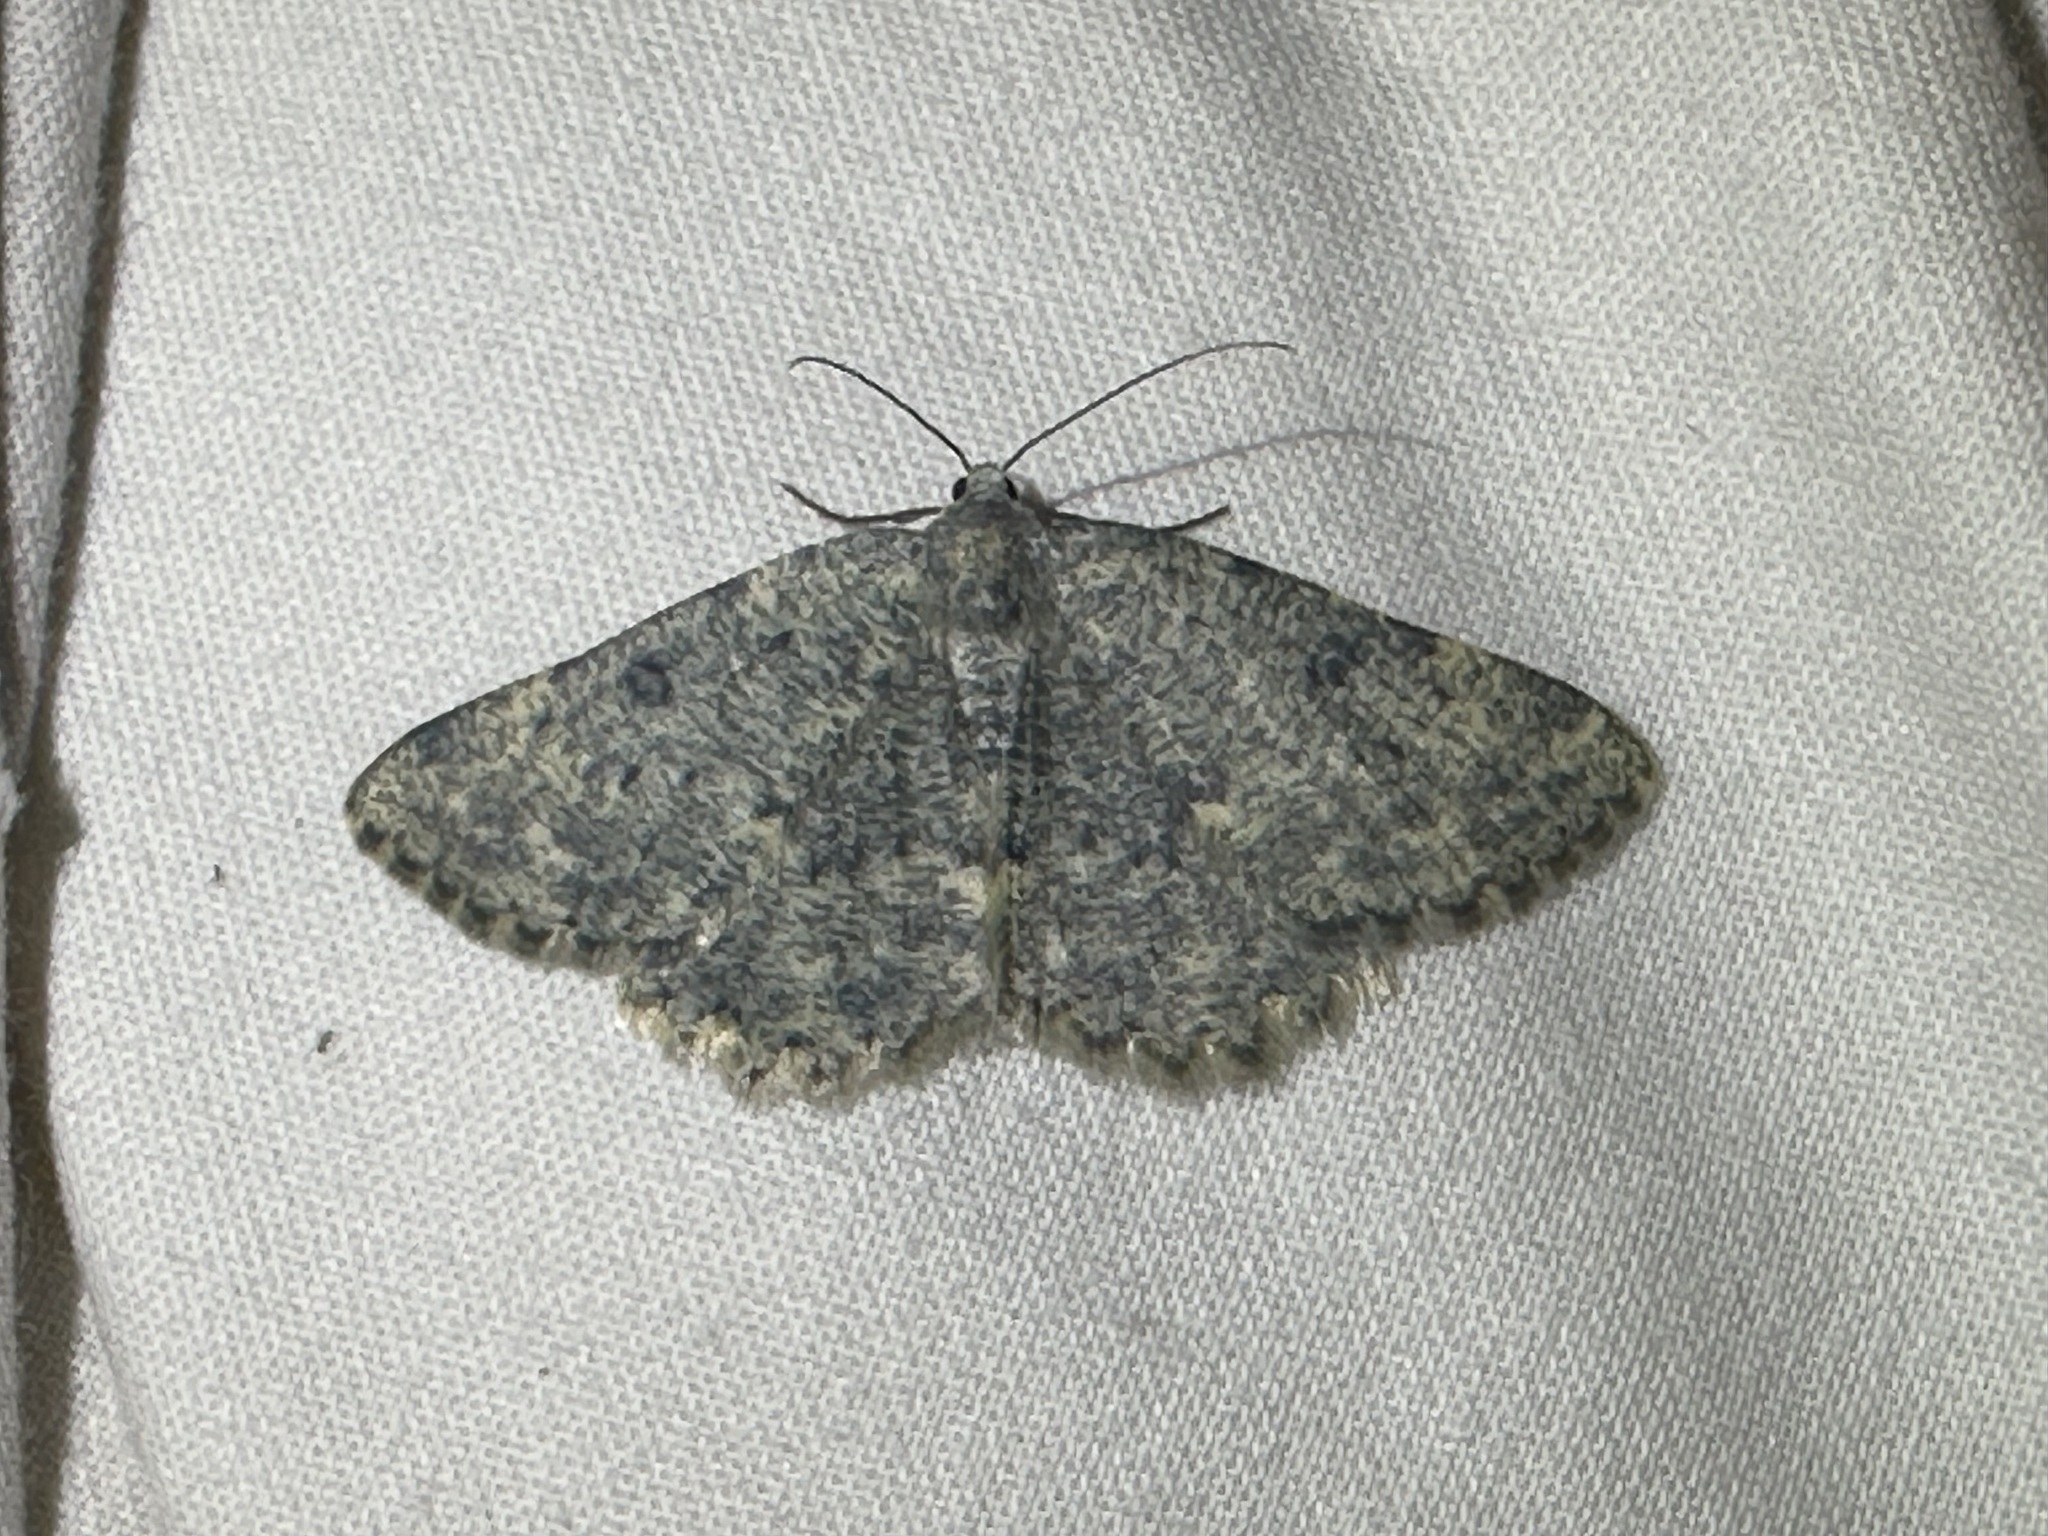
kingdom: Animalia
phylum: Arthropoda
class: Insecta
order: Lepidoptera
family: Geometridae
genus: Charissa
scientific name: Charissa glaucinaria
